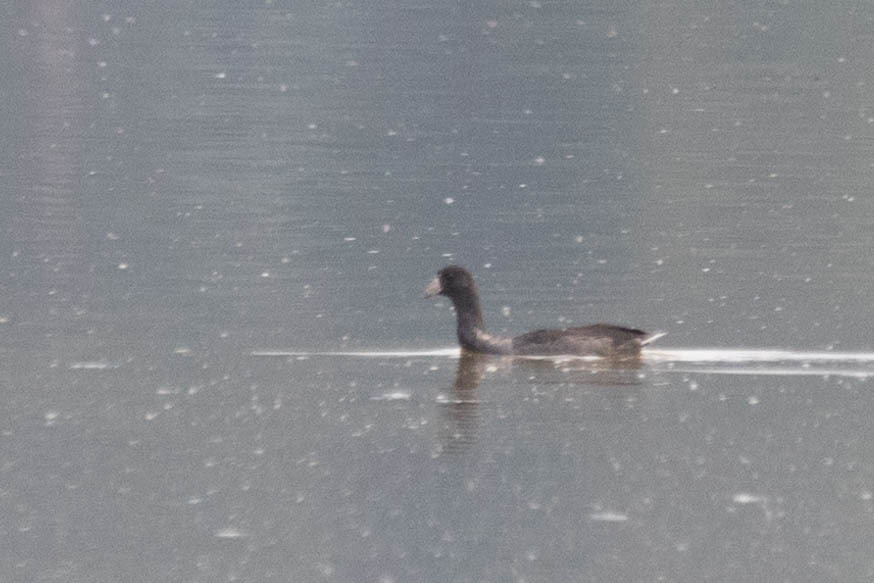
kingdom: Animalia
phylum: Chordata
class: Aves
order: Gruiformes
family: Rallidae
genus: Fulica
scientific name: Fulica americana
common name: American coot
